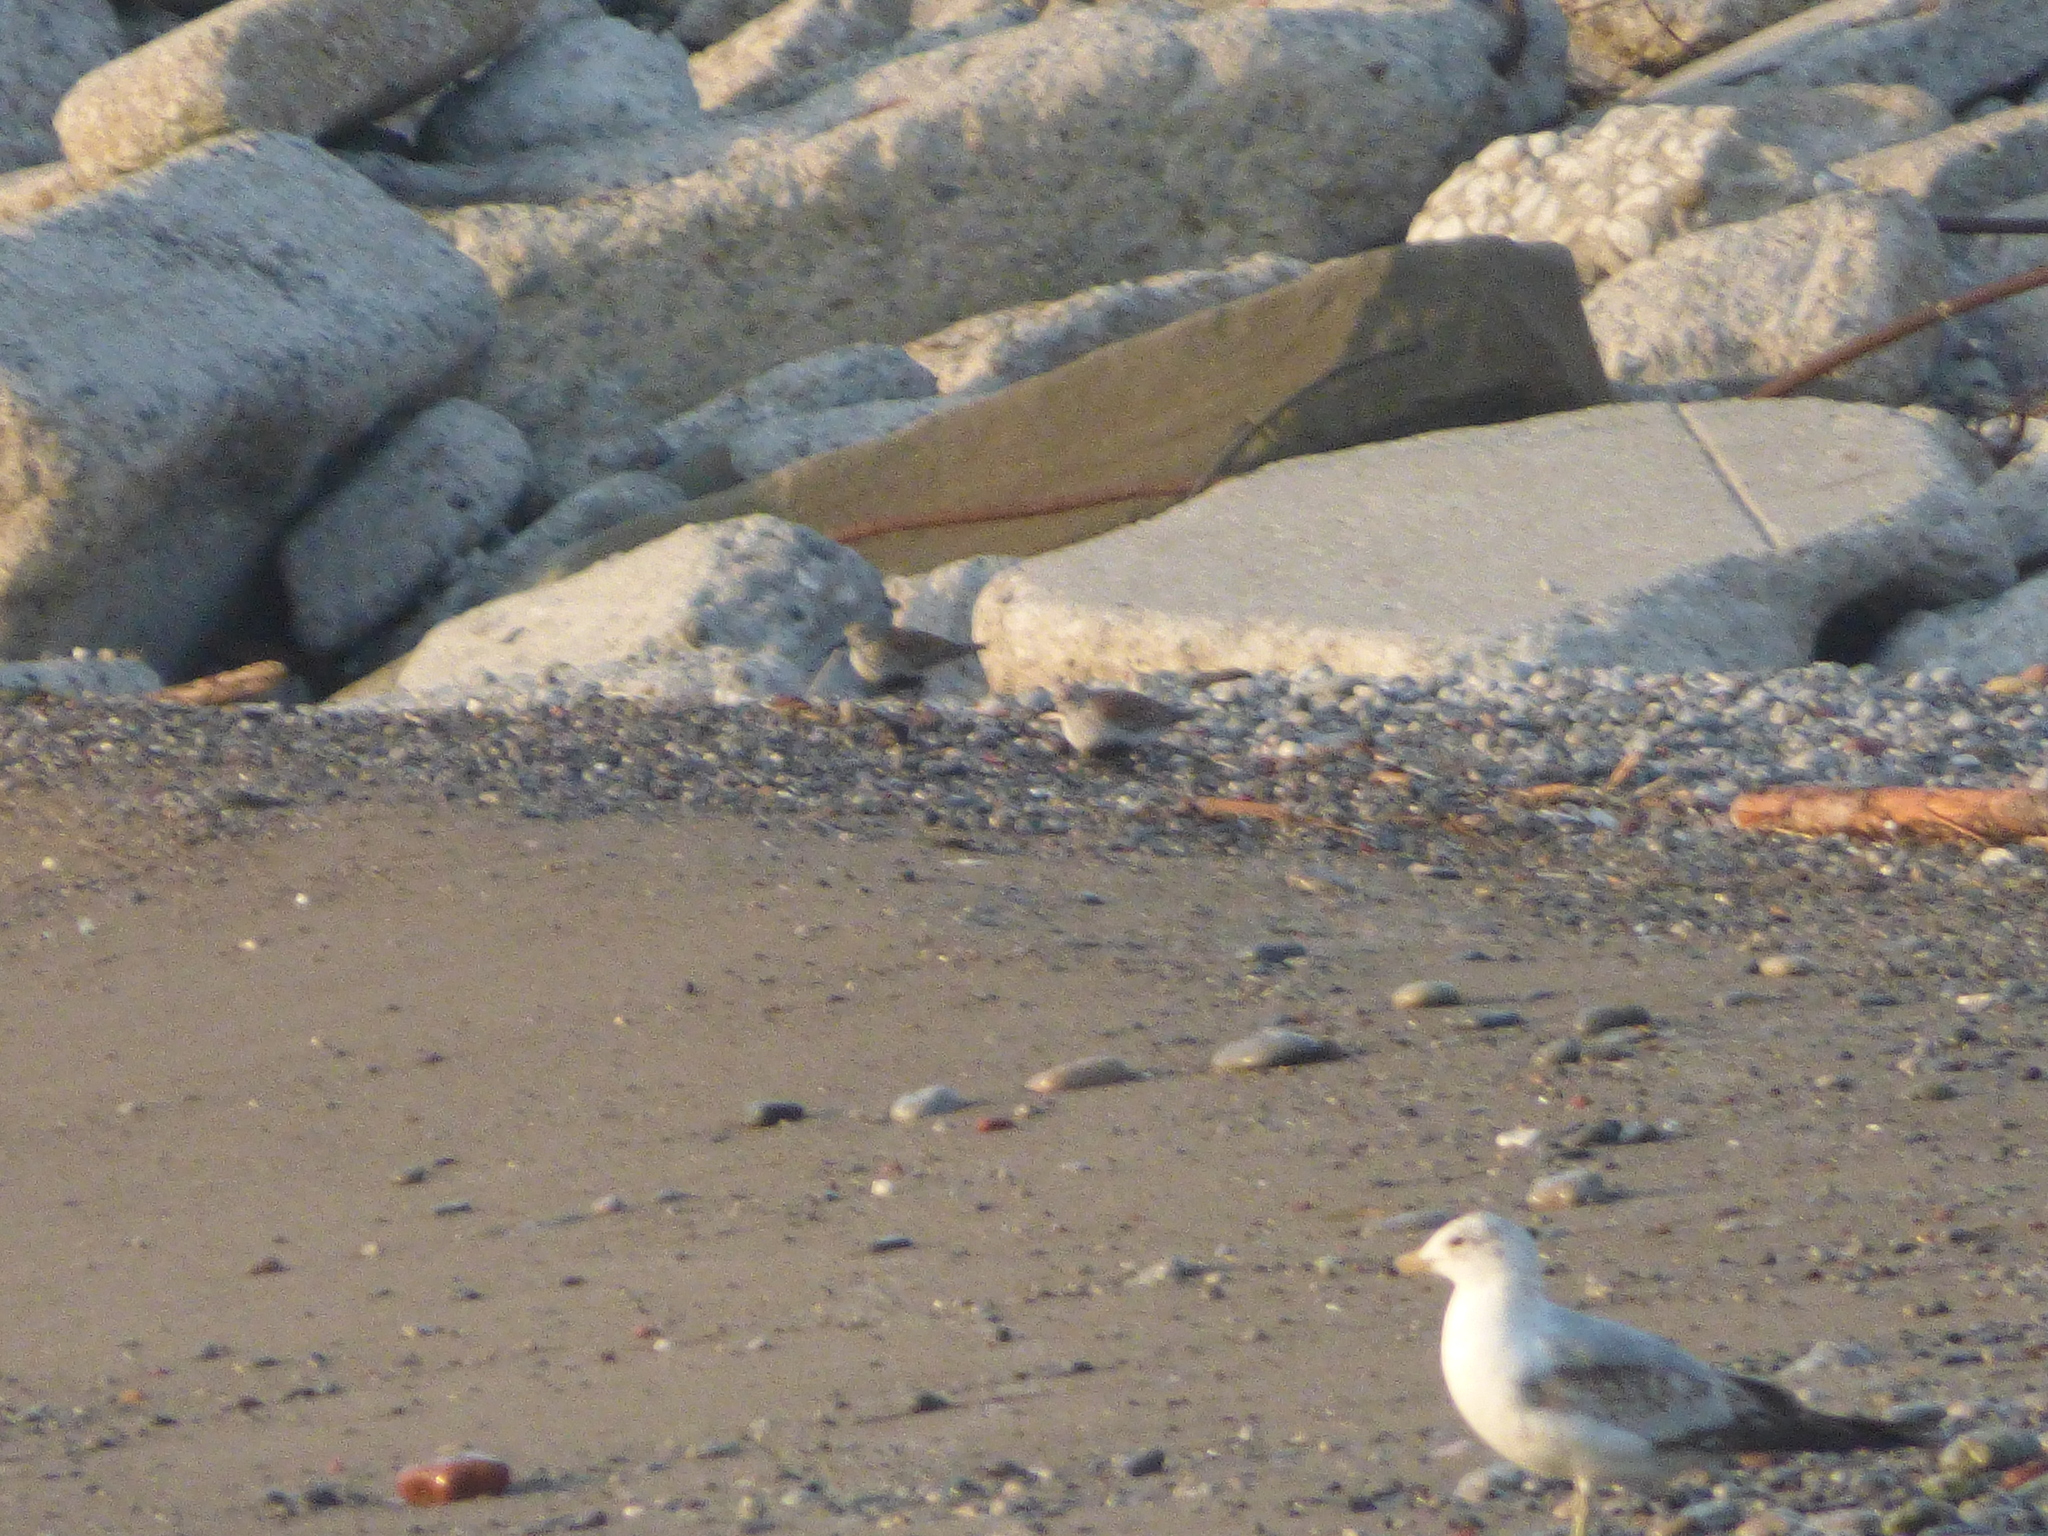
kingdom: Animalia
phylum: Chordata
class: Aves
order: Charadriiformes
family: Laridae
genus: Larus
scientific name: Larus delawarensis
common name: Ring-billed gull
